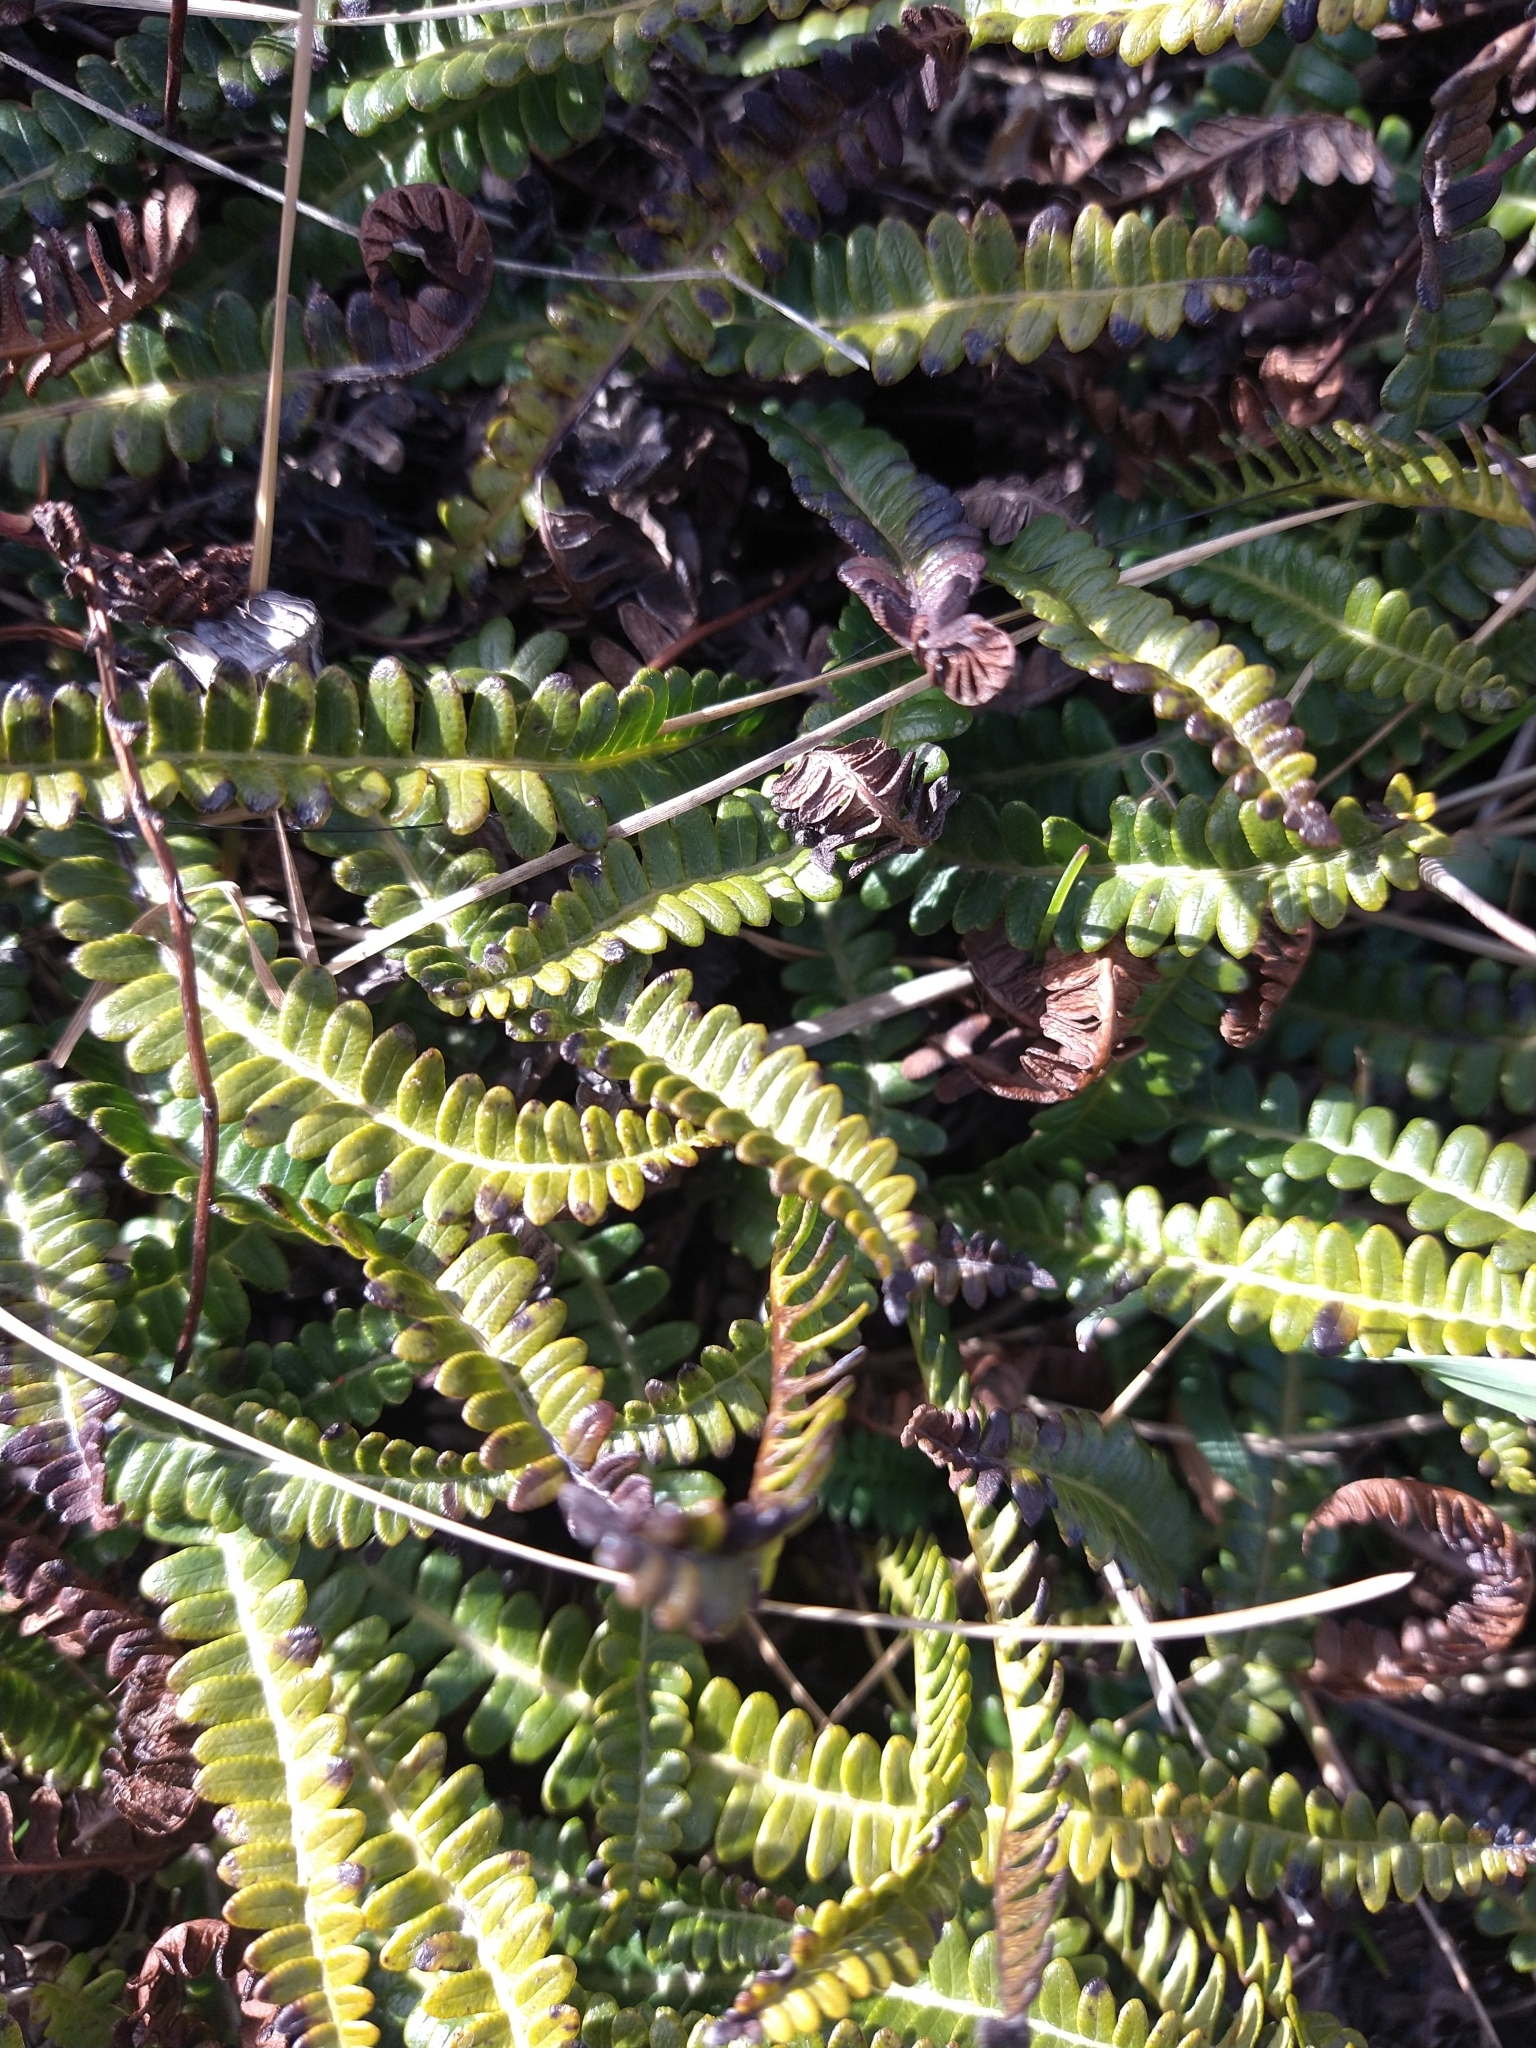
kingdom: Plantae
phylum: Tracheophyta
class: Polypodiopsida
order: Polypodiales
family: Blechnaceae
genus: Austroblechnum
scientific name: Austroblechnum penna-marina
